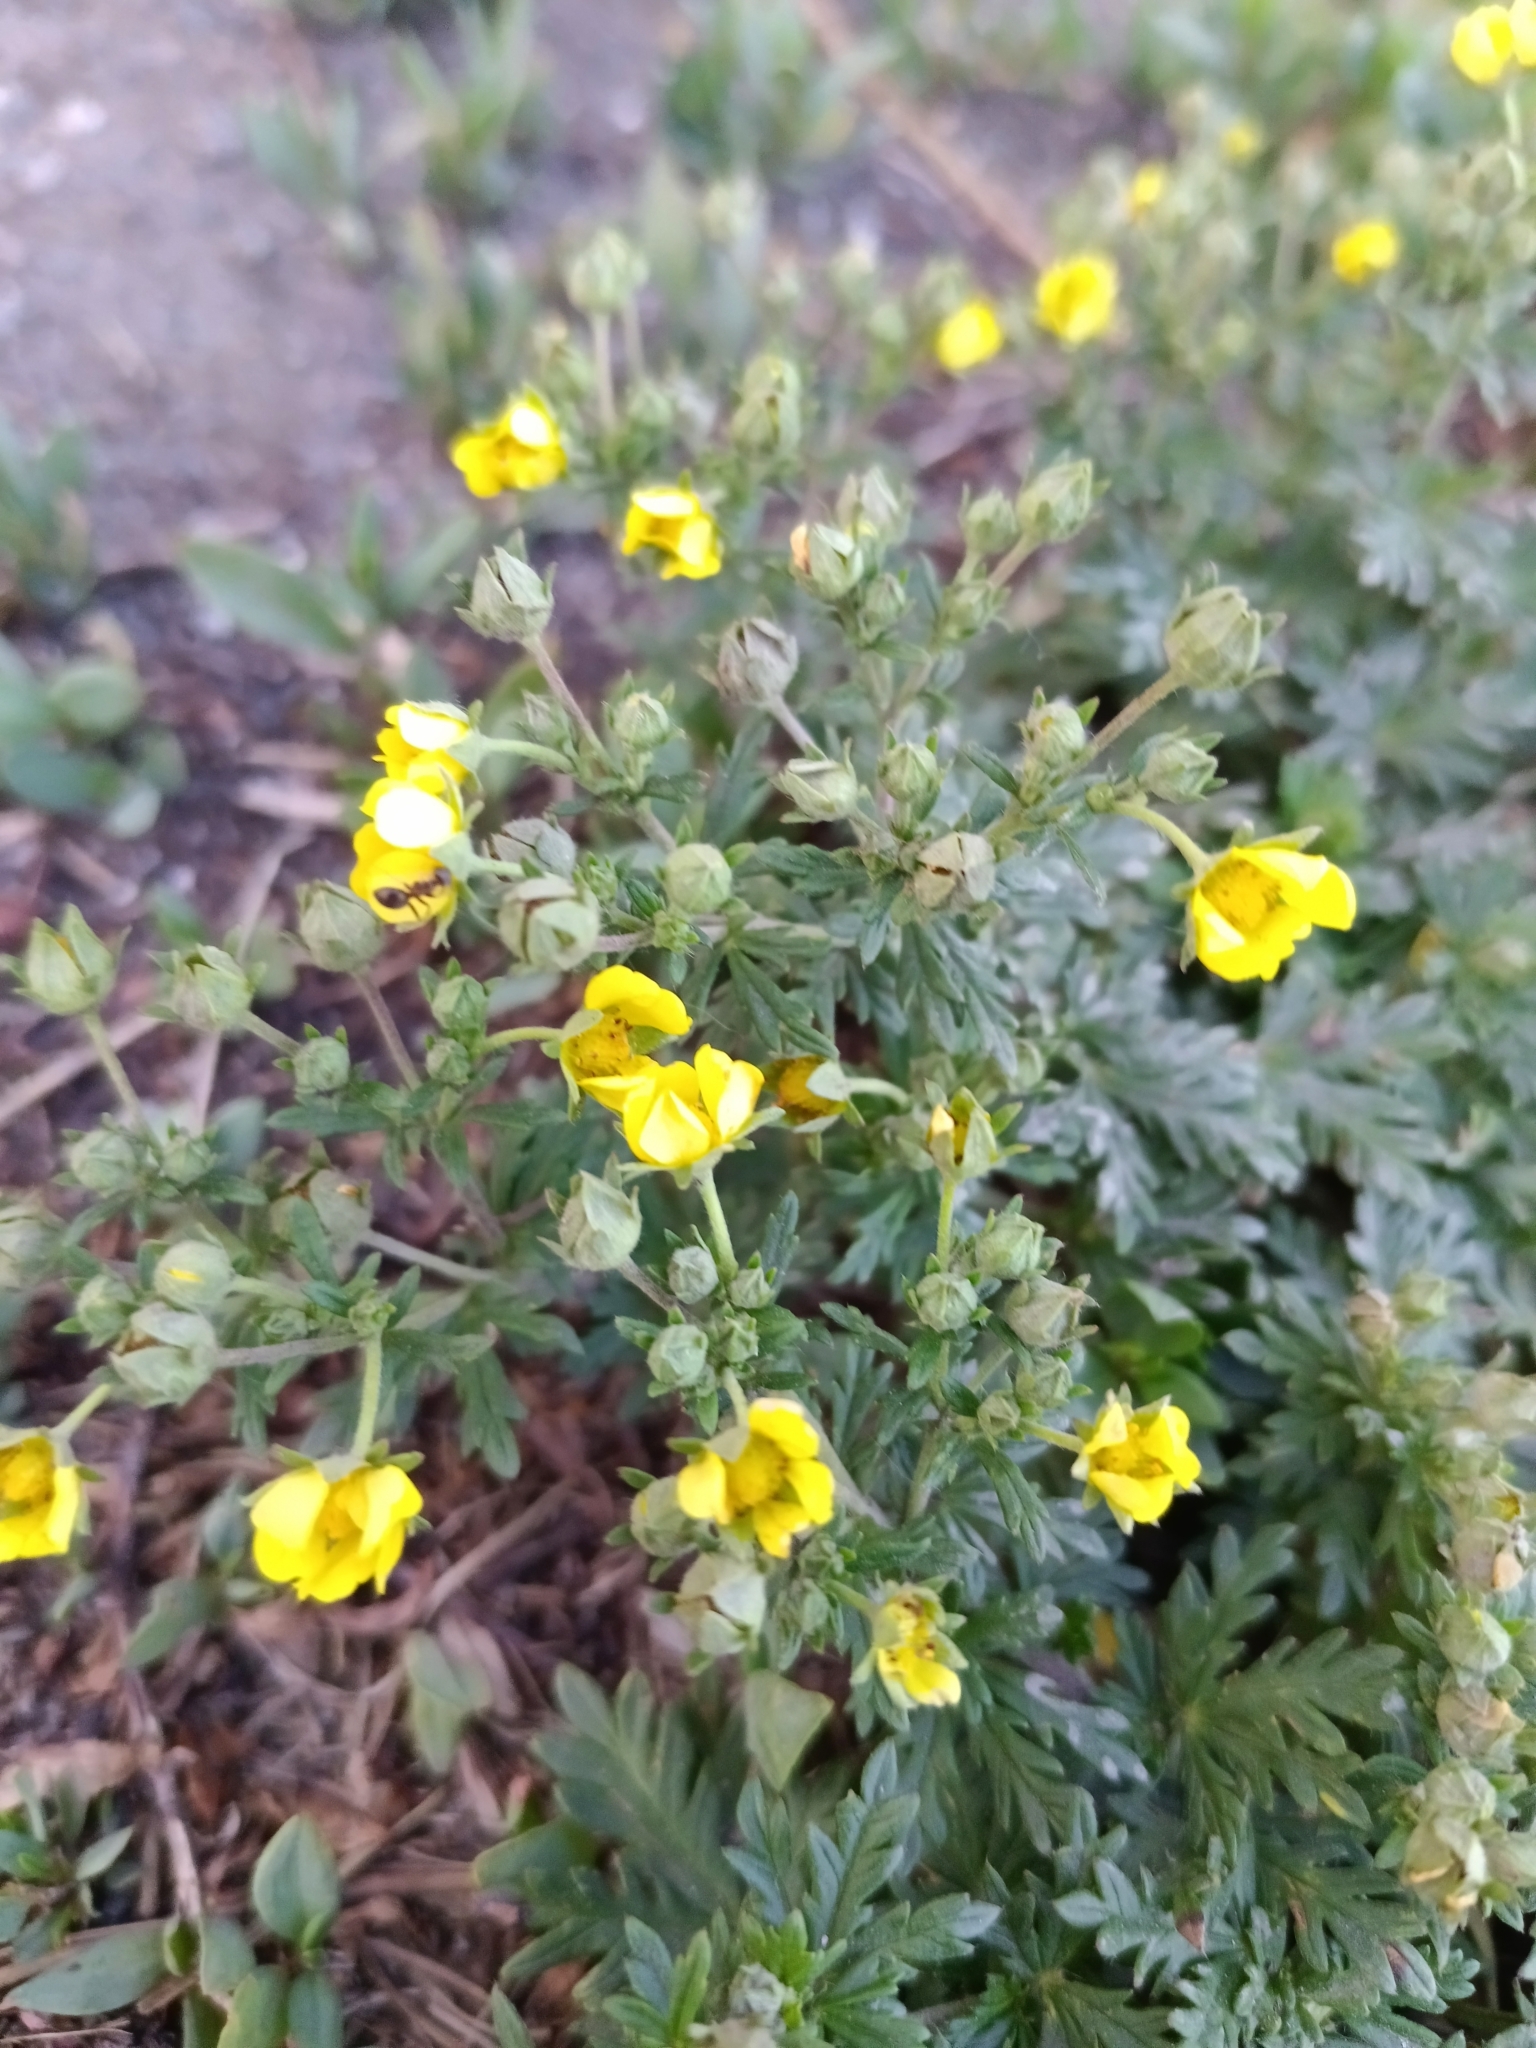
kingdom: Plantae
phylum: Tracheophyta
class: Magnoliopsida
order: Rosales
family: Rosaceae
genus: Potentilla
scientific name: Potentilla argentea
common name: Hoary cinquefoil
